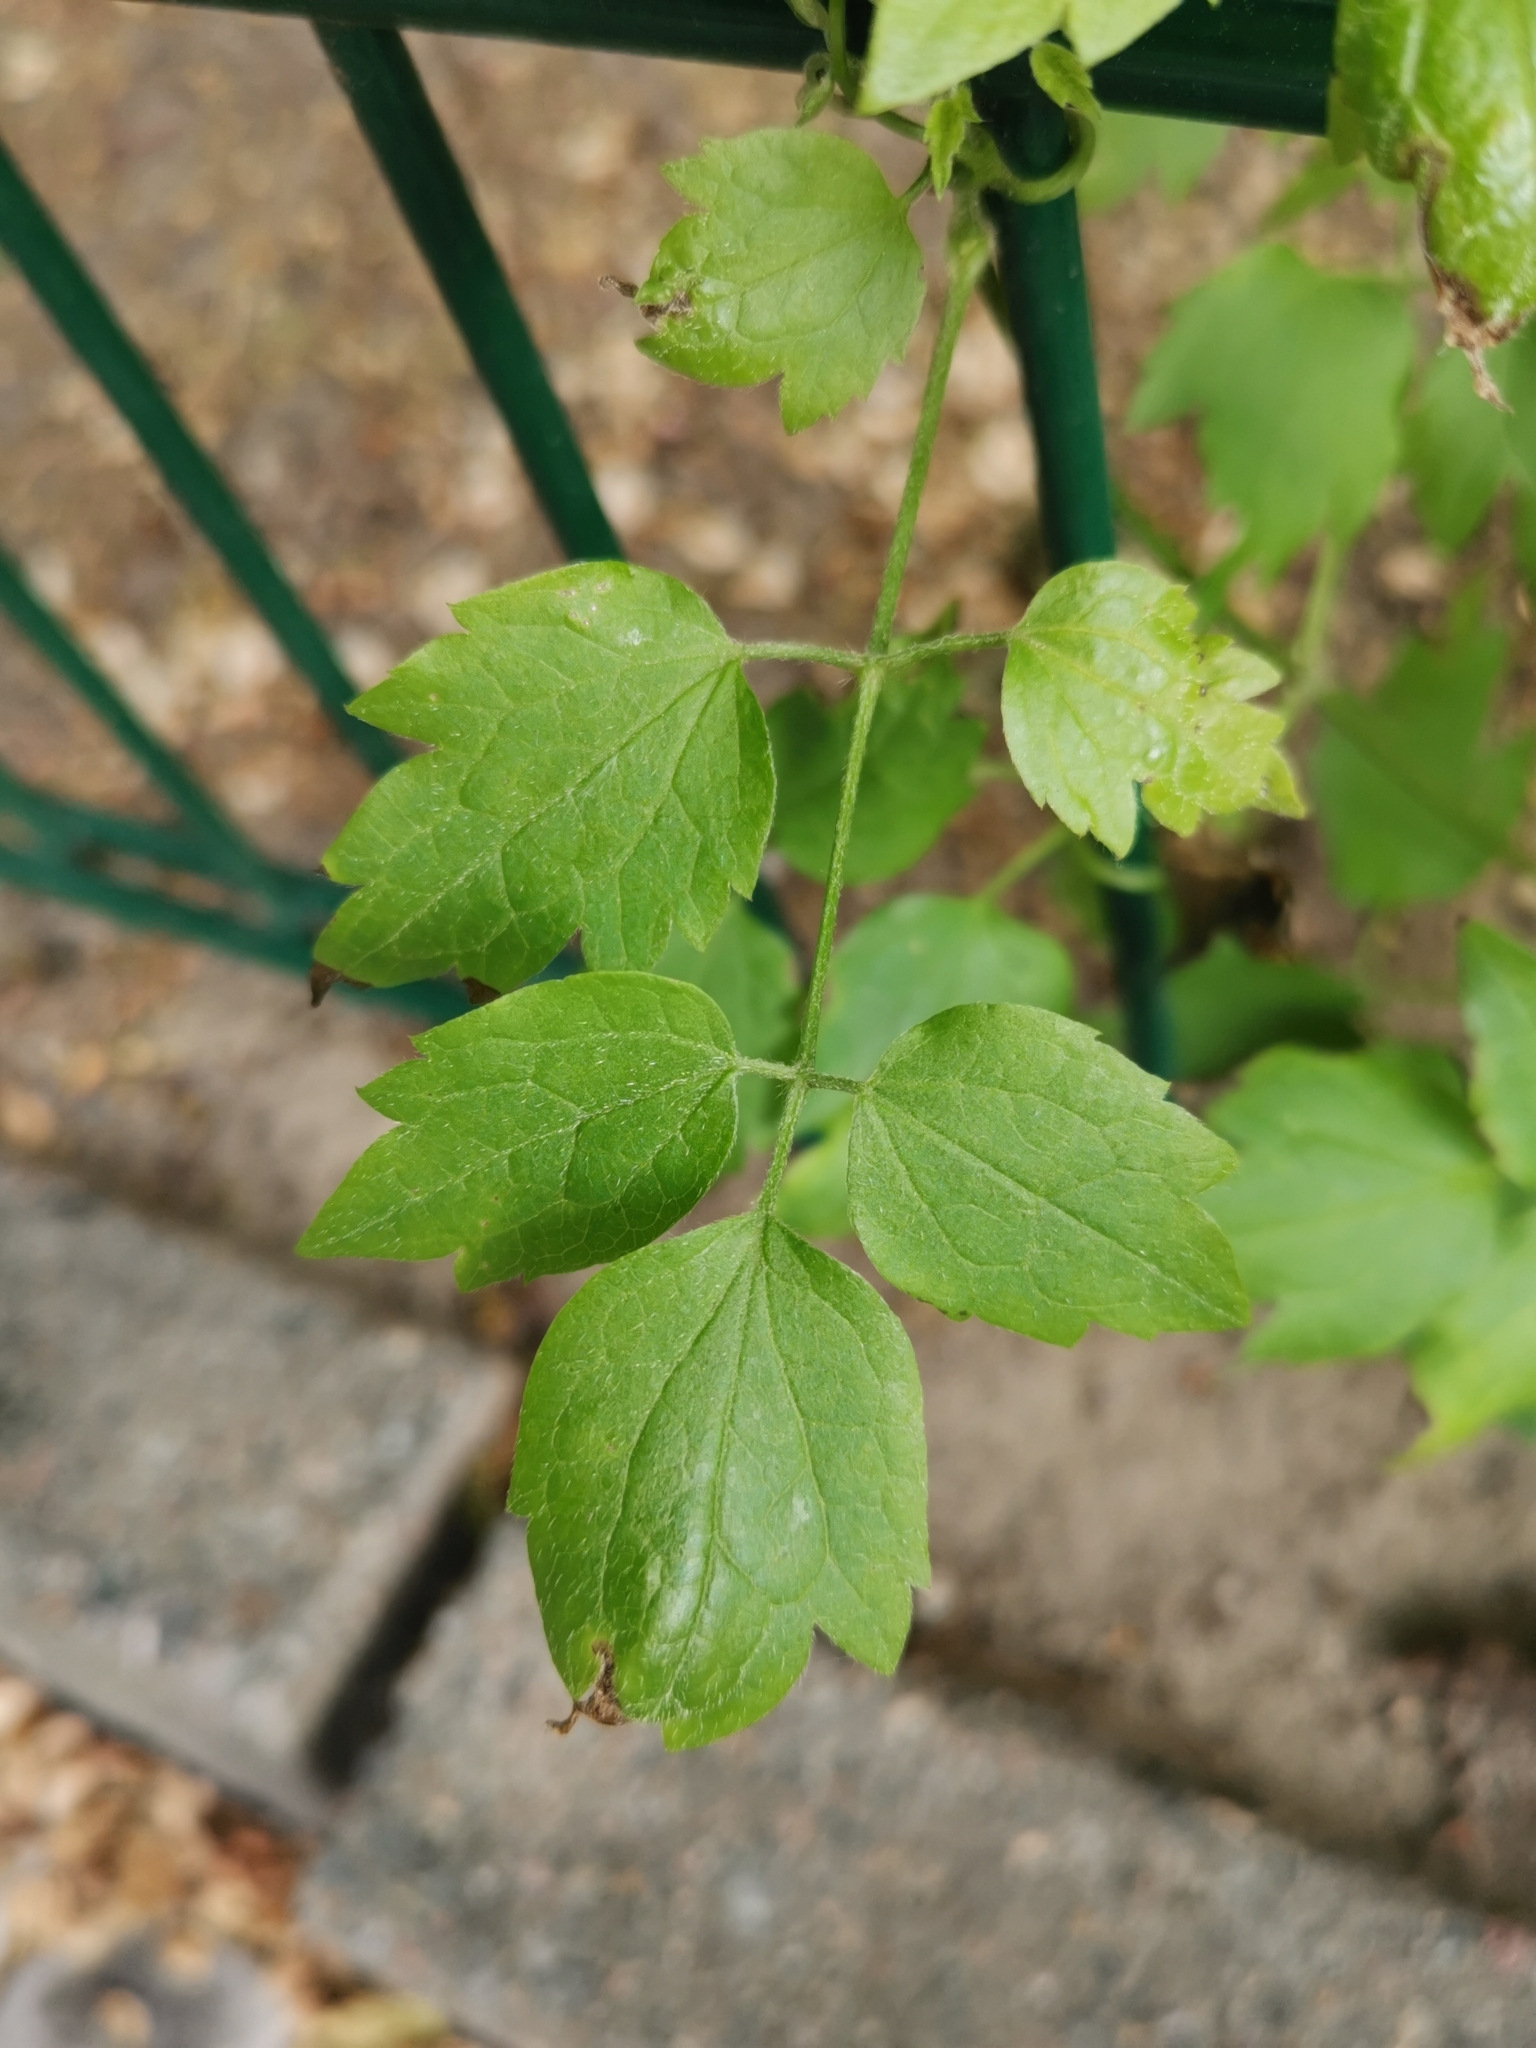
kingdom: Plantae
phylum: Tracheophyta
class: Magnoliopsida
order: Ranunculales
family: Ranunculaceae
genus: Clematis
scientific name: Clematis vitalba
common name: Evergreen clematis
